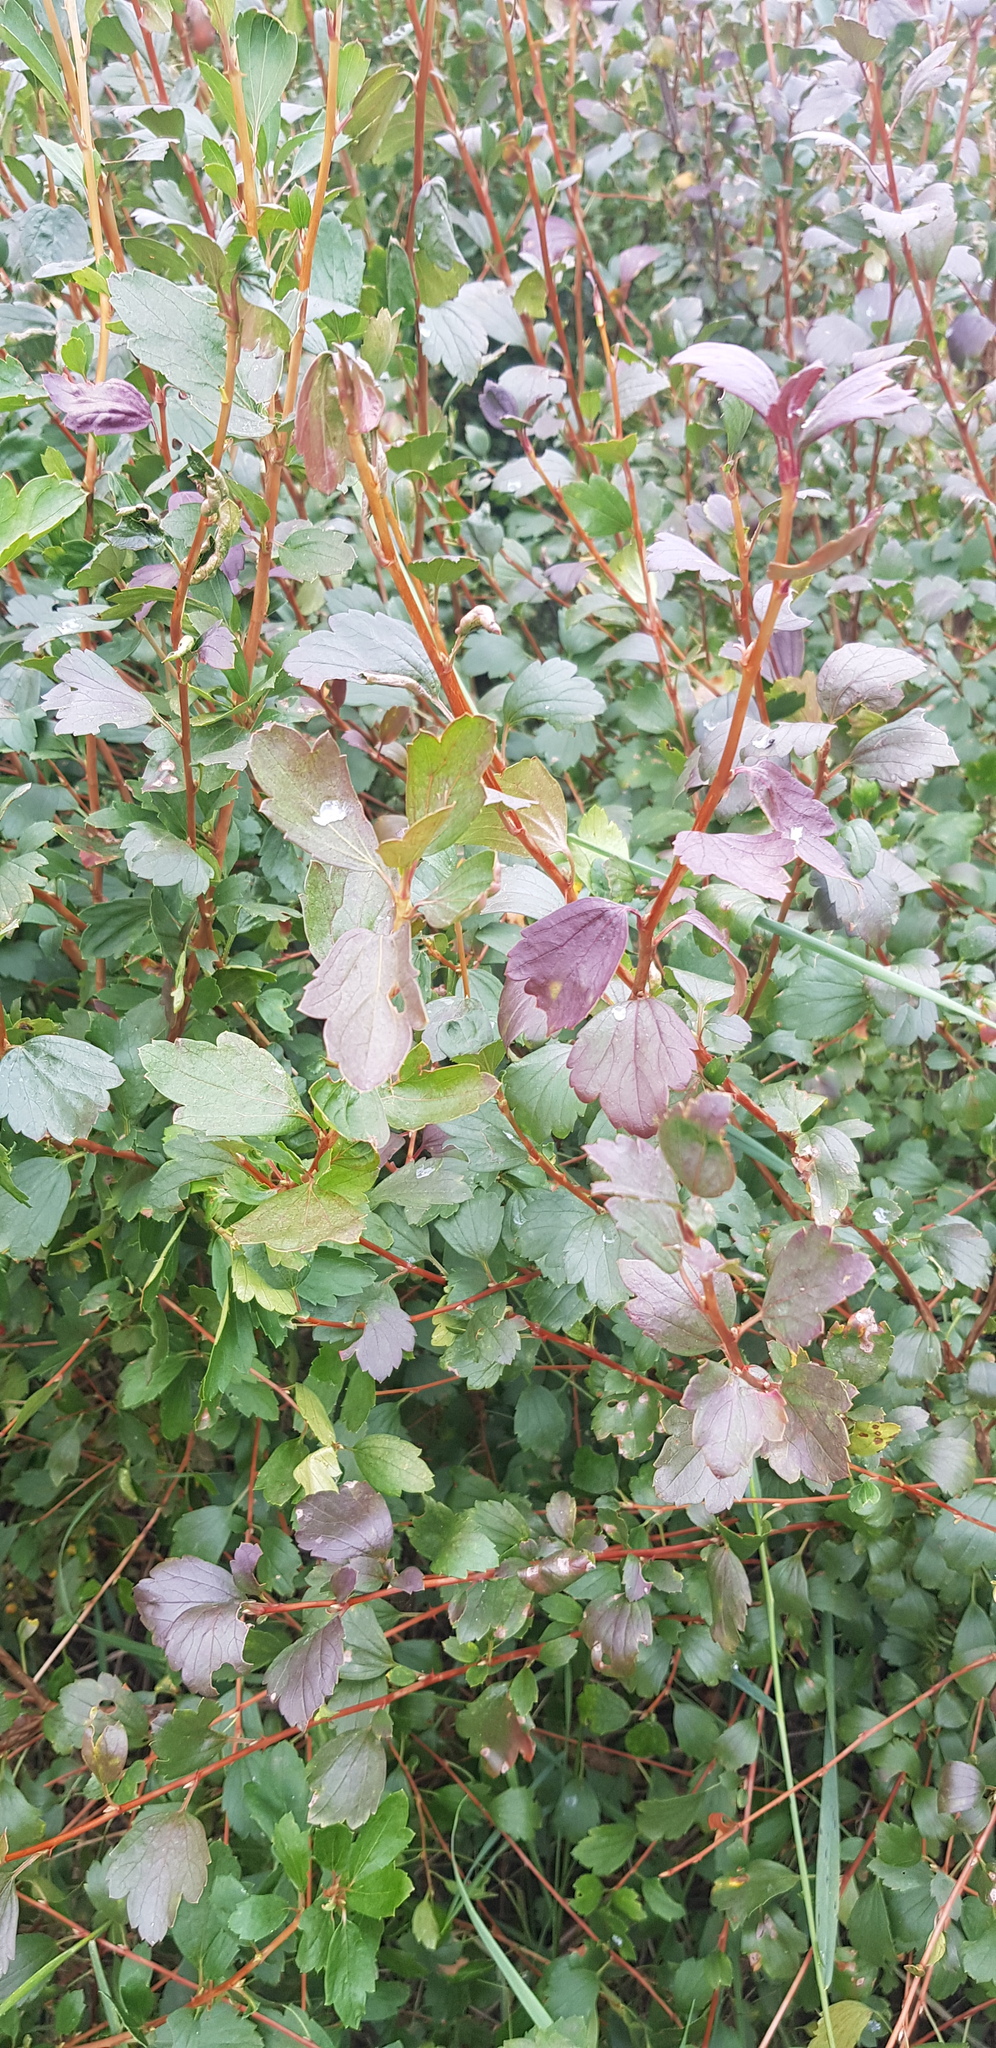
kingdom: Plantae
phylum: Tracheophyta
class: Magnoliopsida
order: Saxifragales
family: Grossulariaceae
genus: Ribes
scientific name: Ribes diacanthum
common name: Siberian currant
